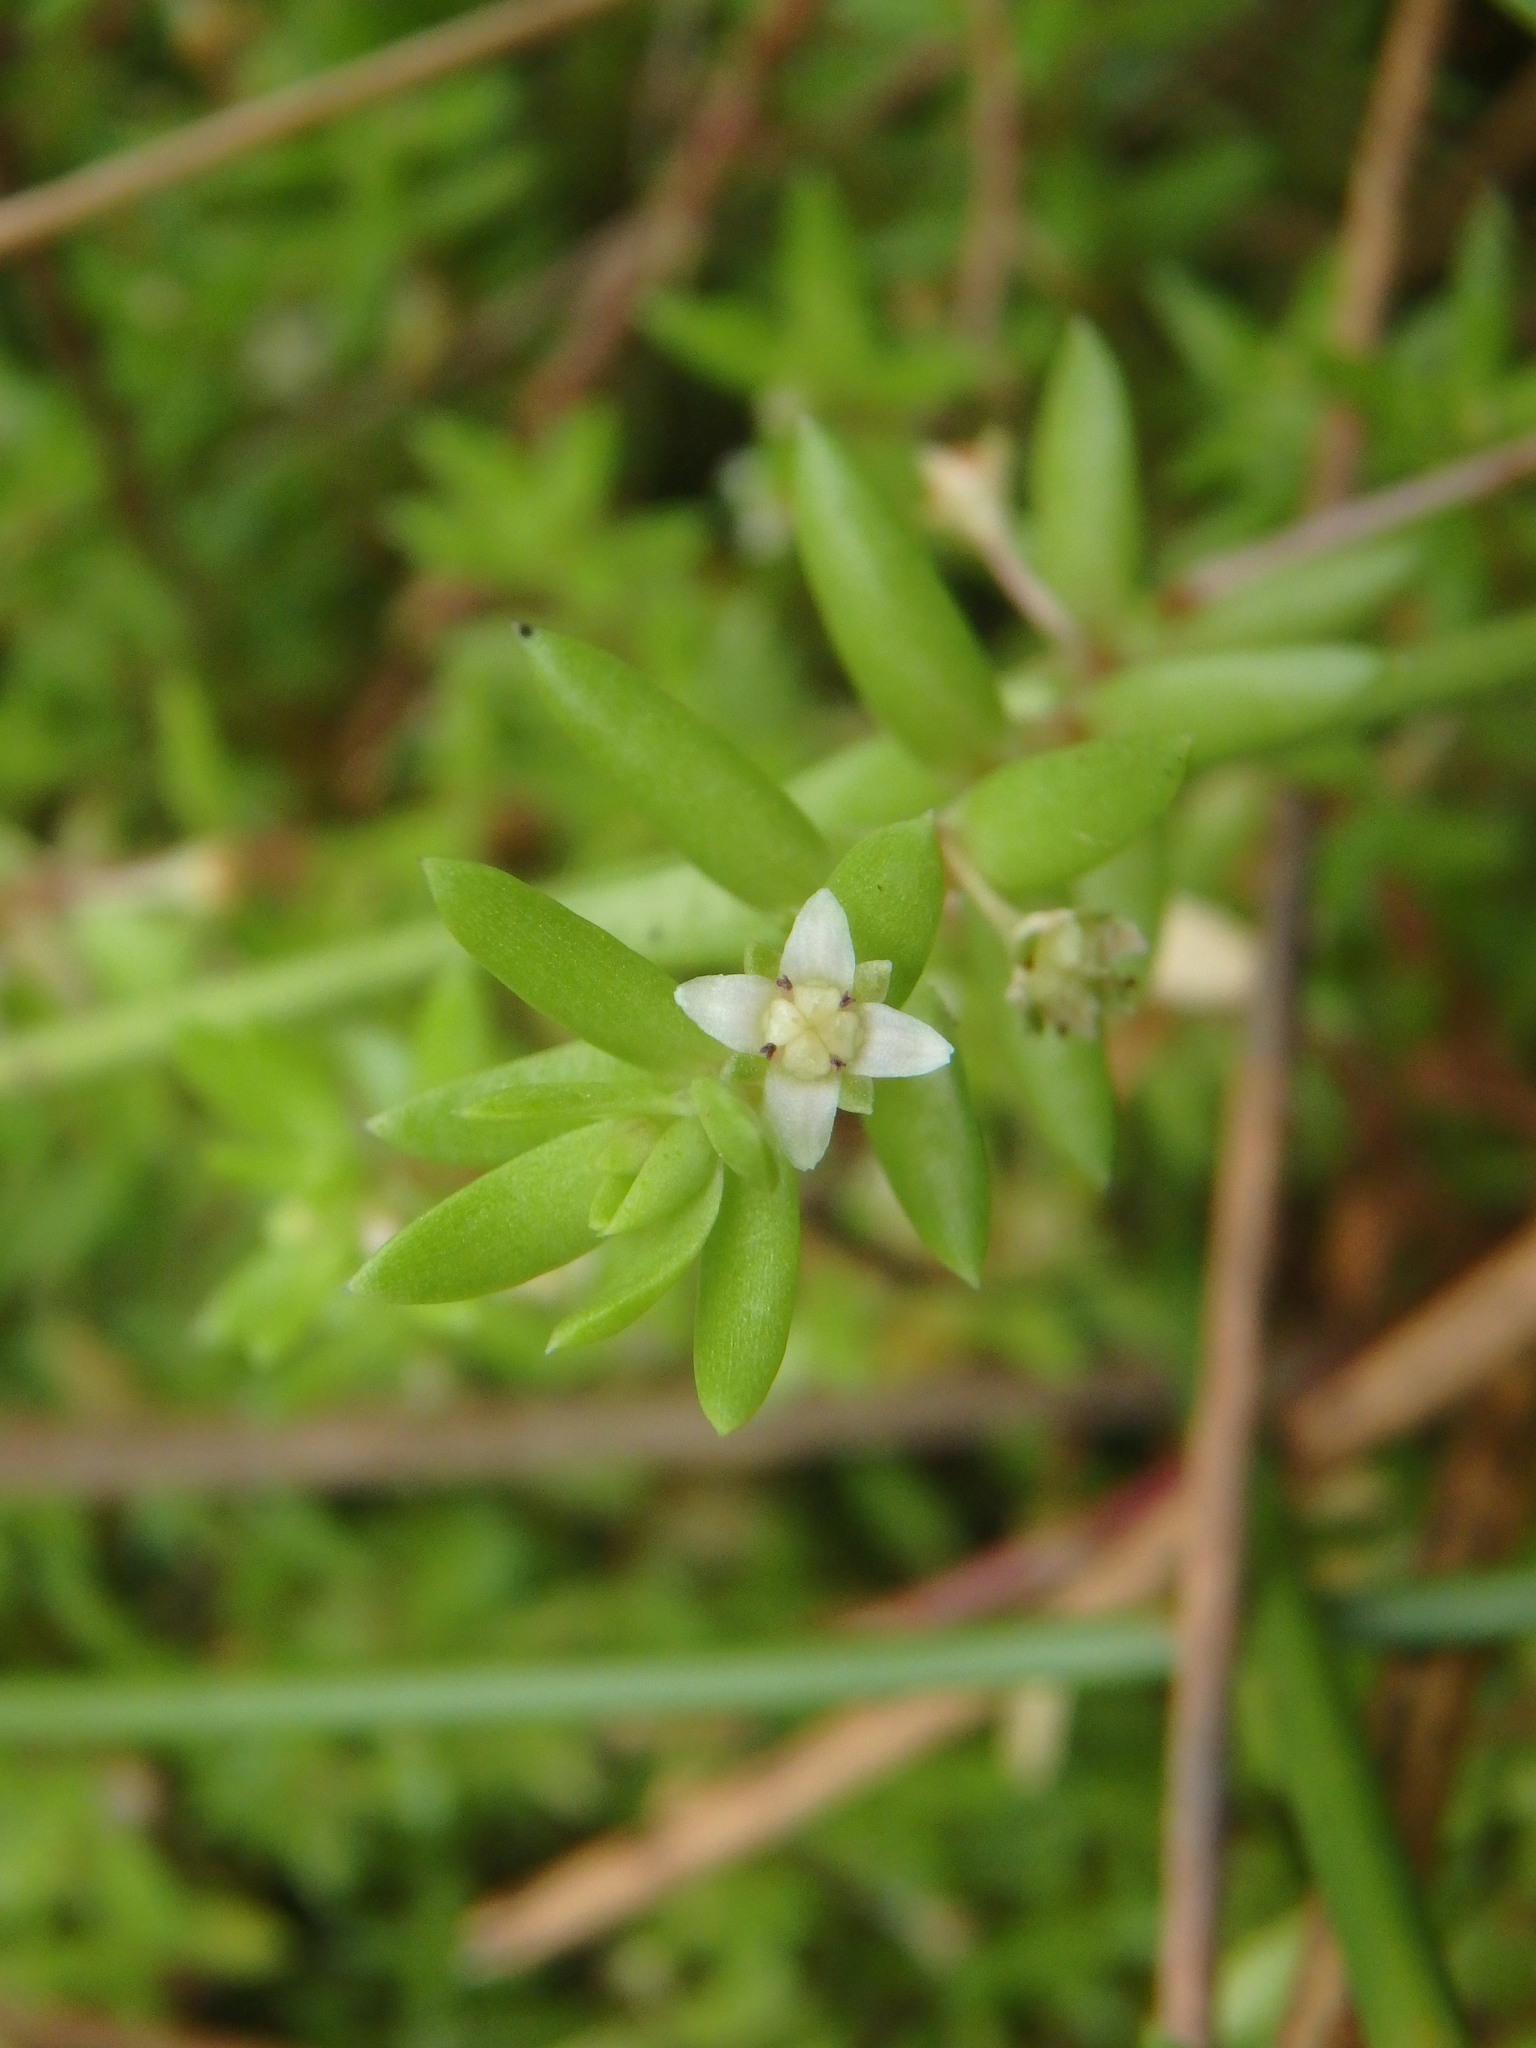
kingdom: Plantae
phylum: Tracheophyta
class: Magnoliopsida
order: Saxifragales
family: Crassulaceae
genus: Crassula
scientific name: Crassula helmsii
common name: New zealand pigmyweed
